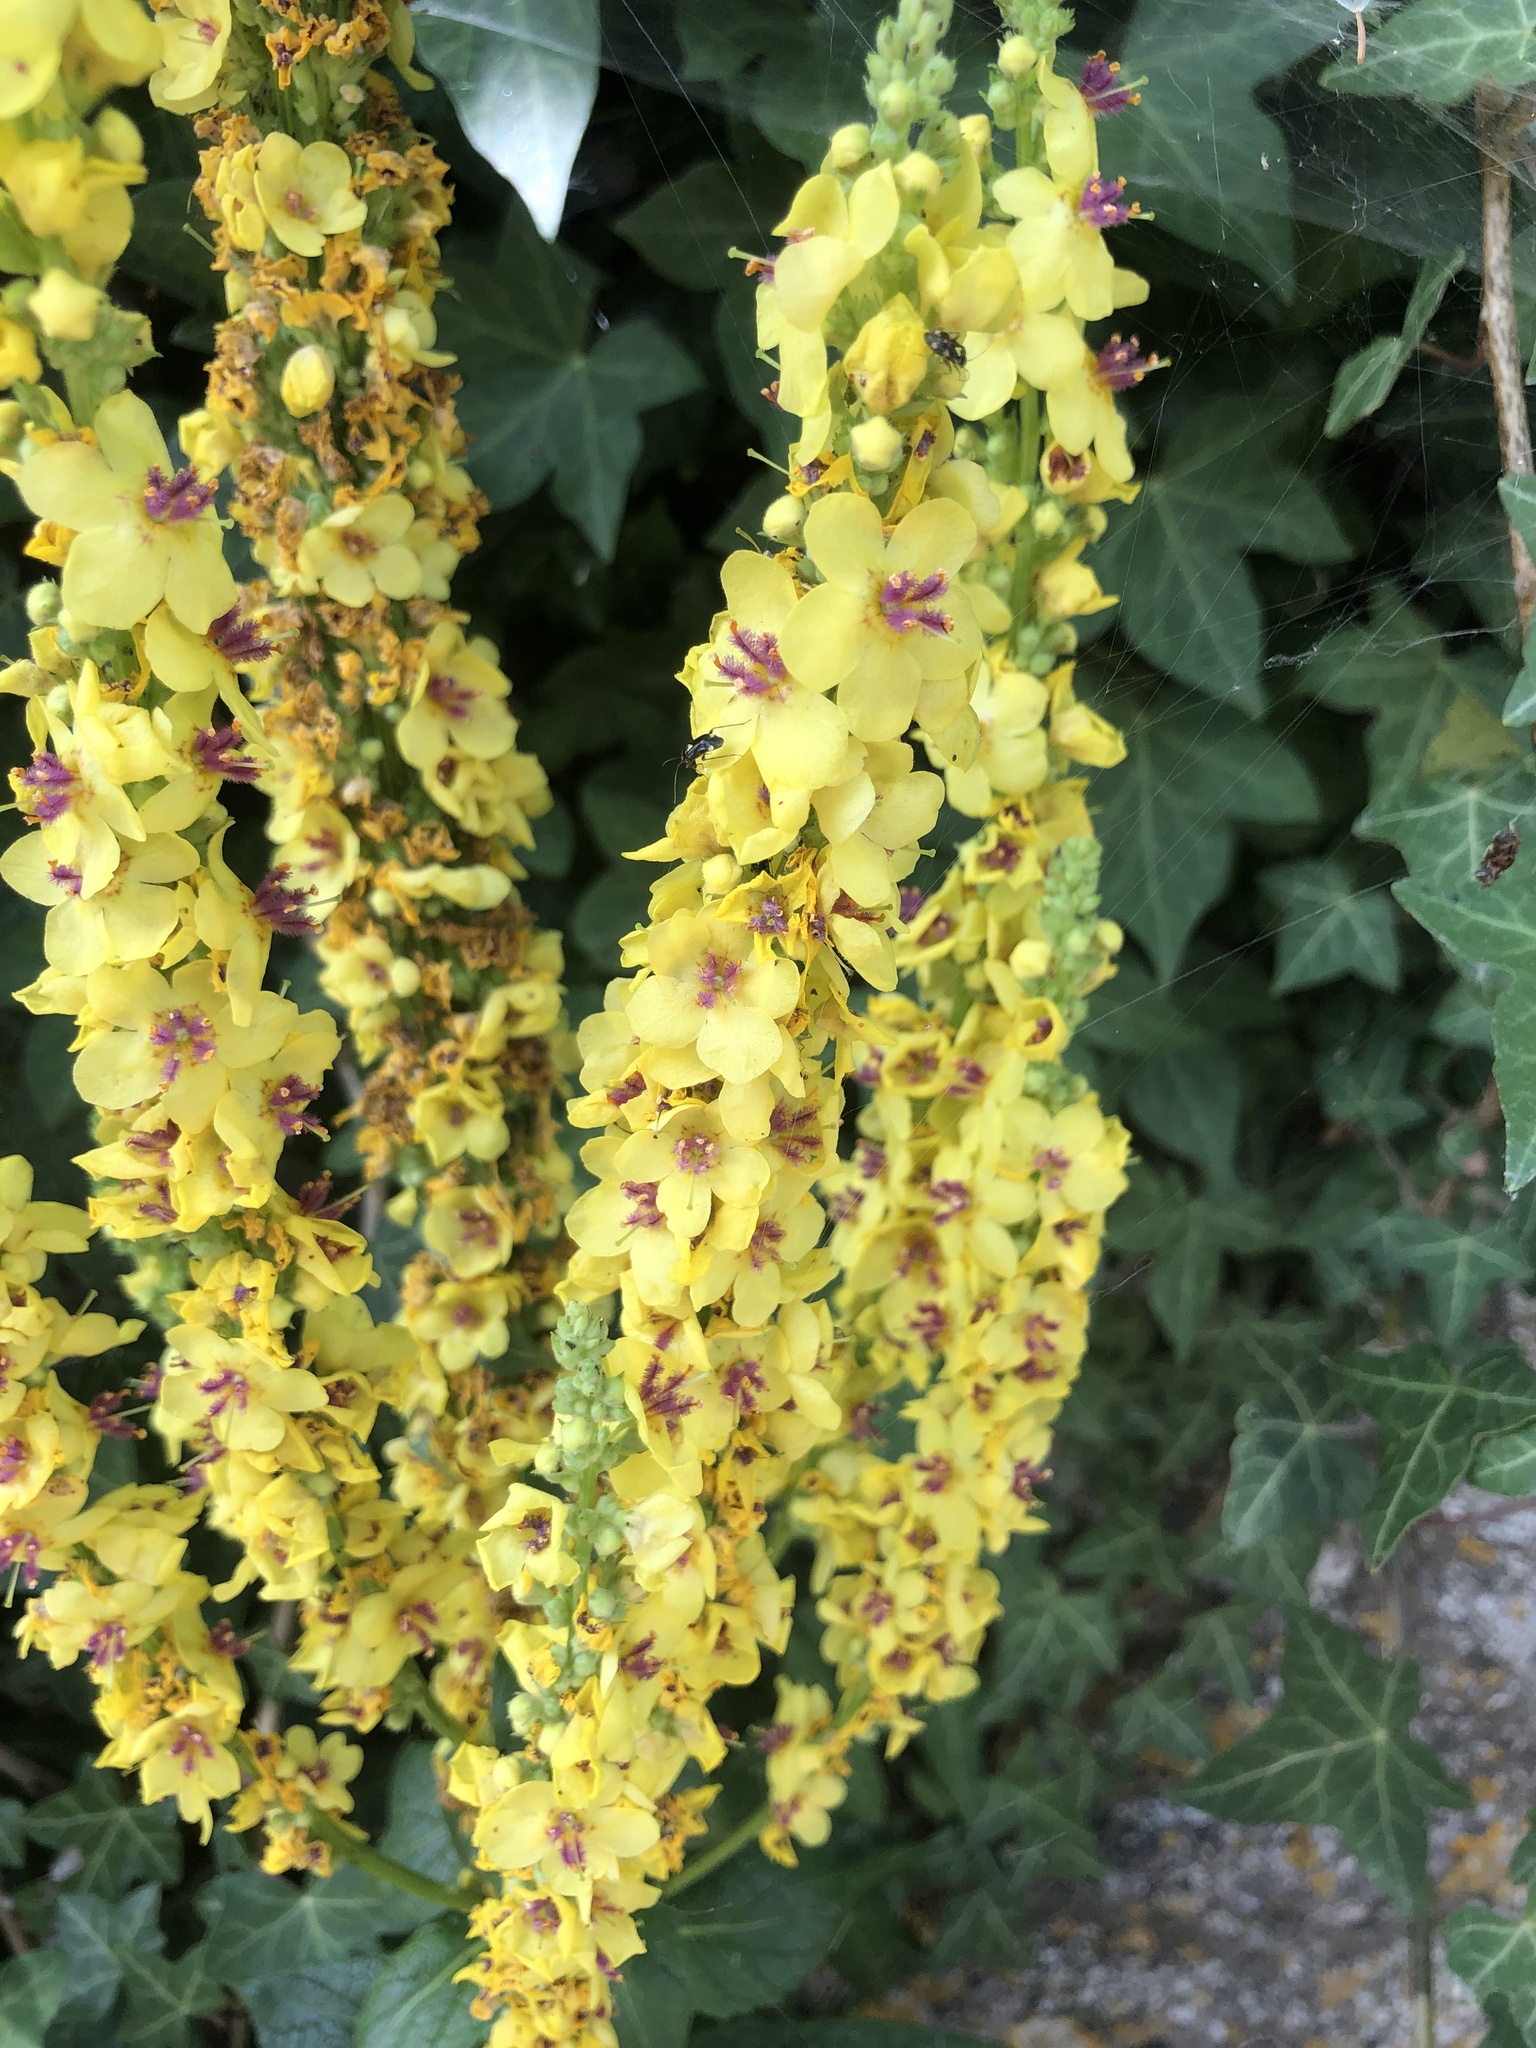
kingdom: Plantae
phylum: Tracheophyta
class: Magnoliopsida
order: Lamiales
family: Scrophulariaceae
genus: Verbascum
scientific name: Verbascum nigrum
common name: Dark mullein
